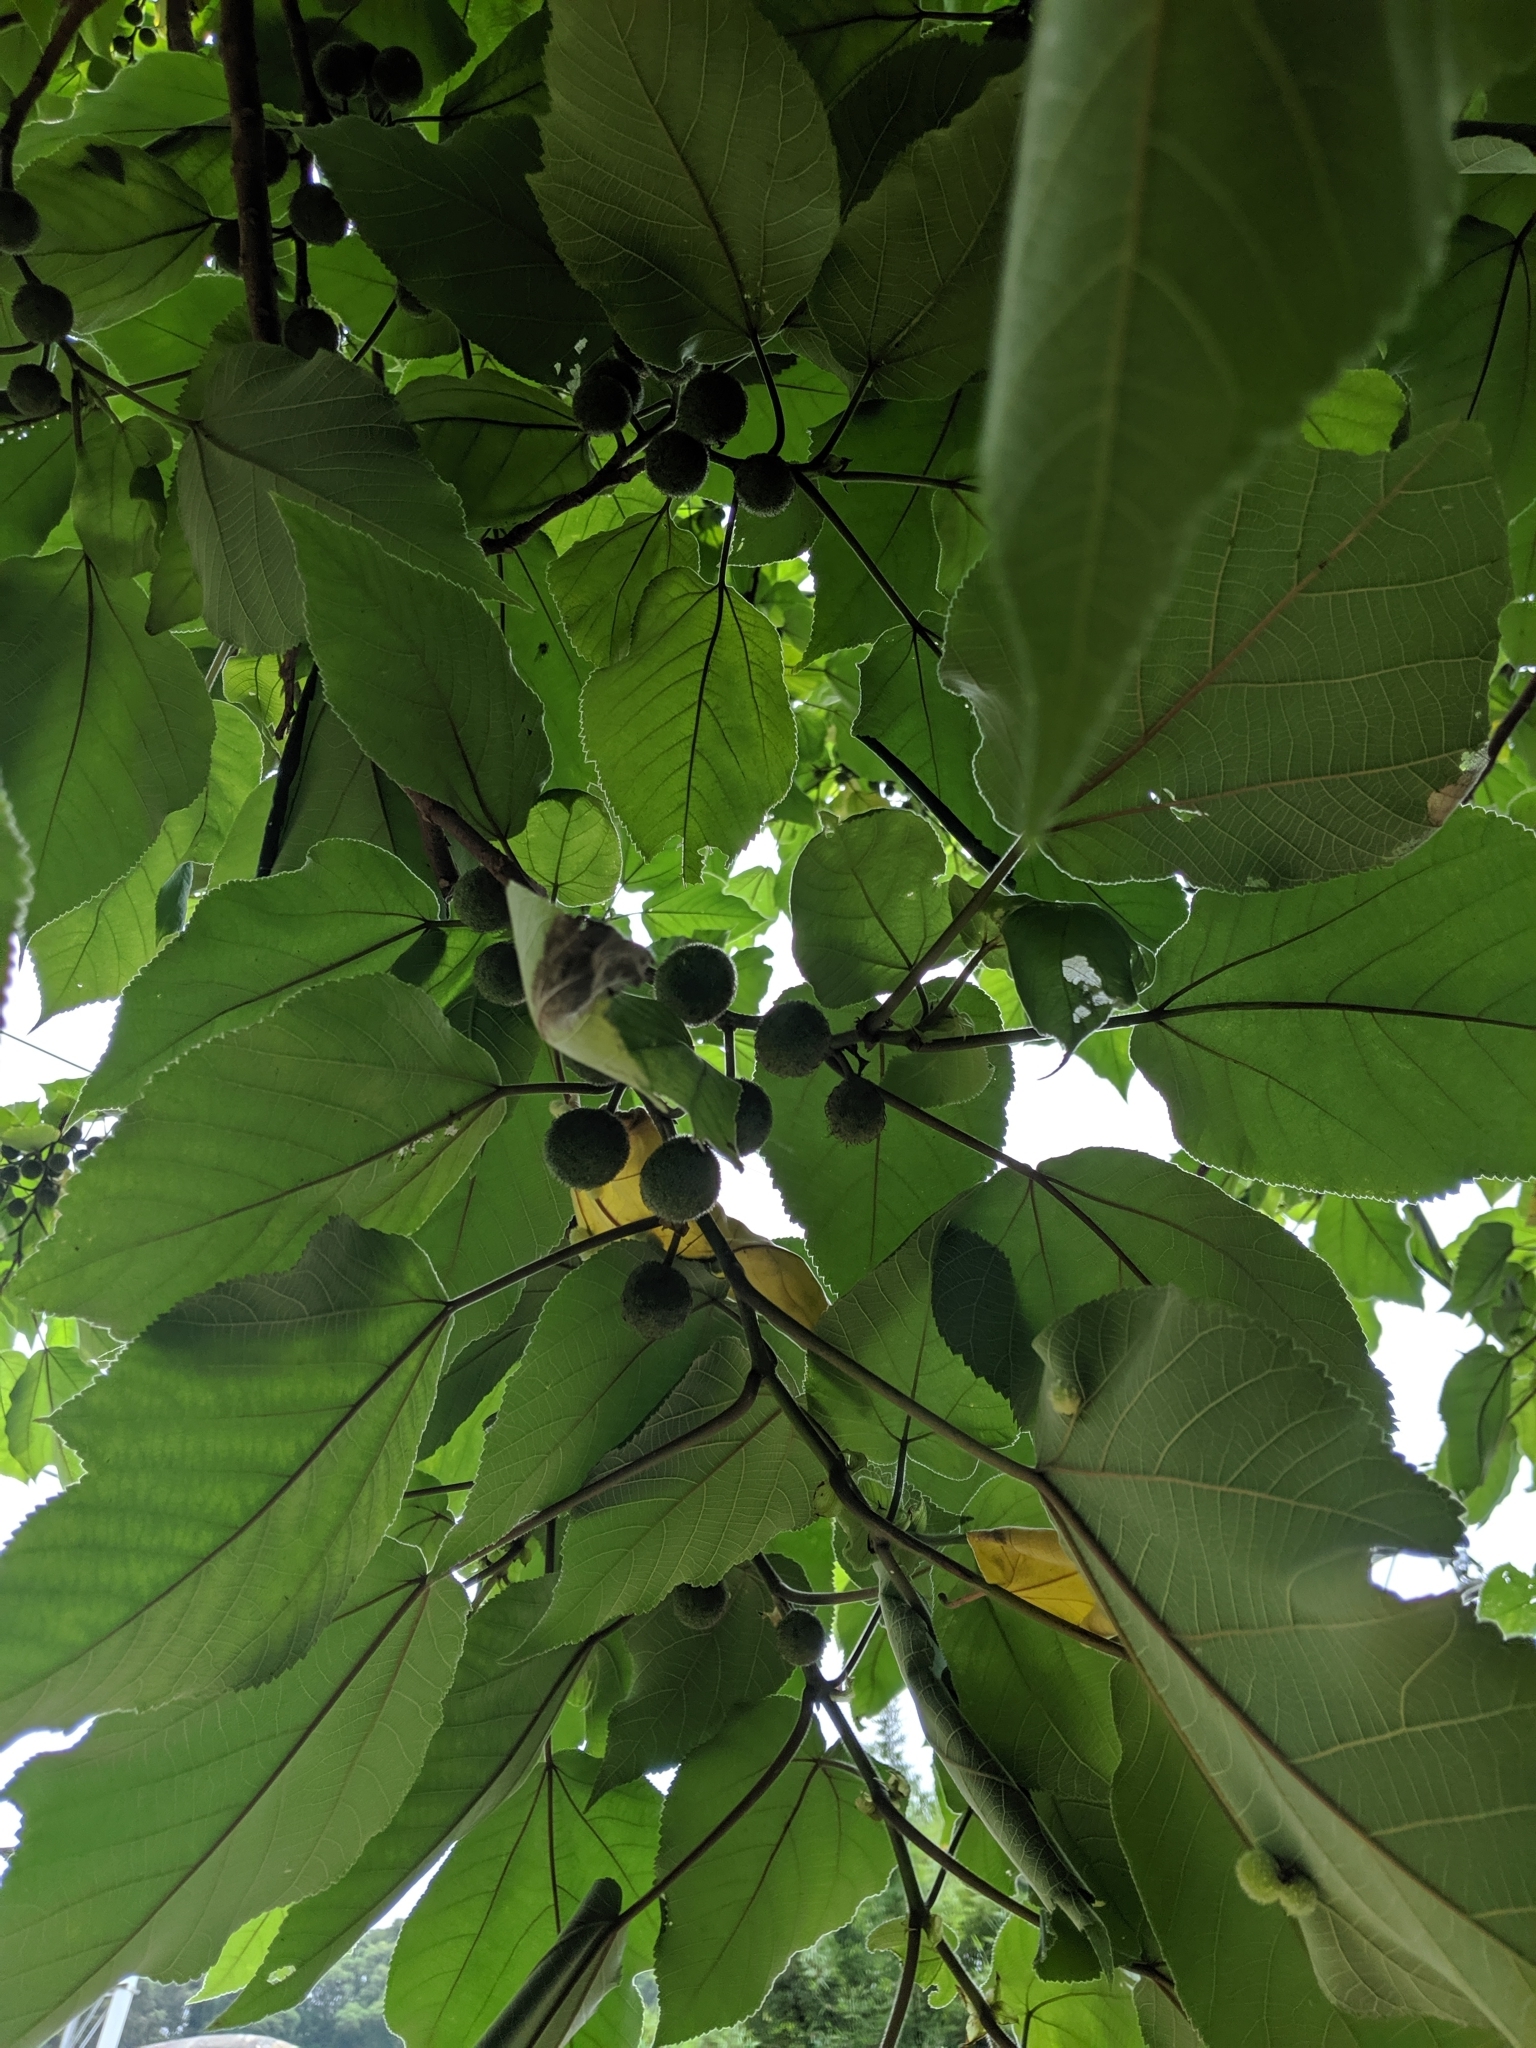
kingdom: Plantae
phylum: Tracheophyta
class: Magnoliopsida
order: Rosales
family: Moraceae
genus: Broussonetia
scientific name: Broussonetia papyrifera
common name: Paper mulberry
